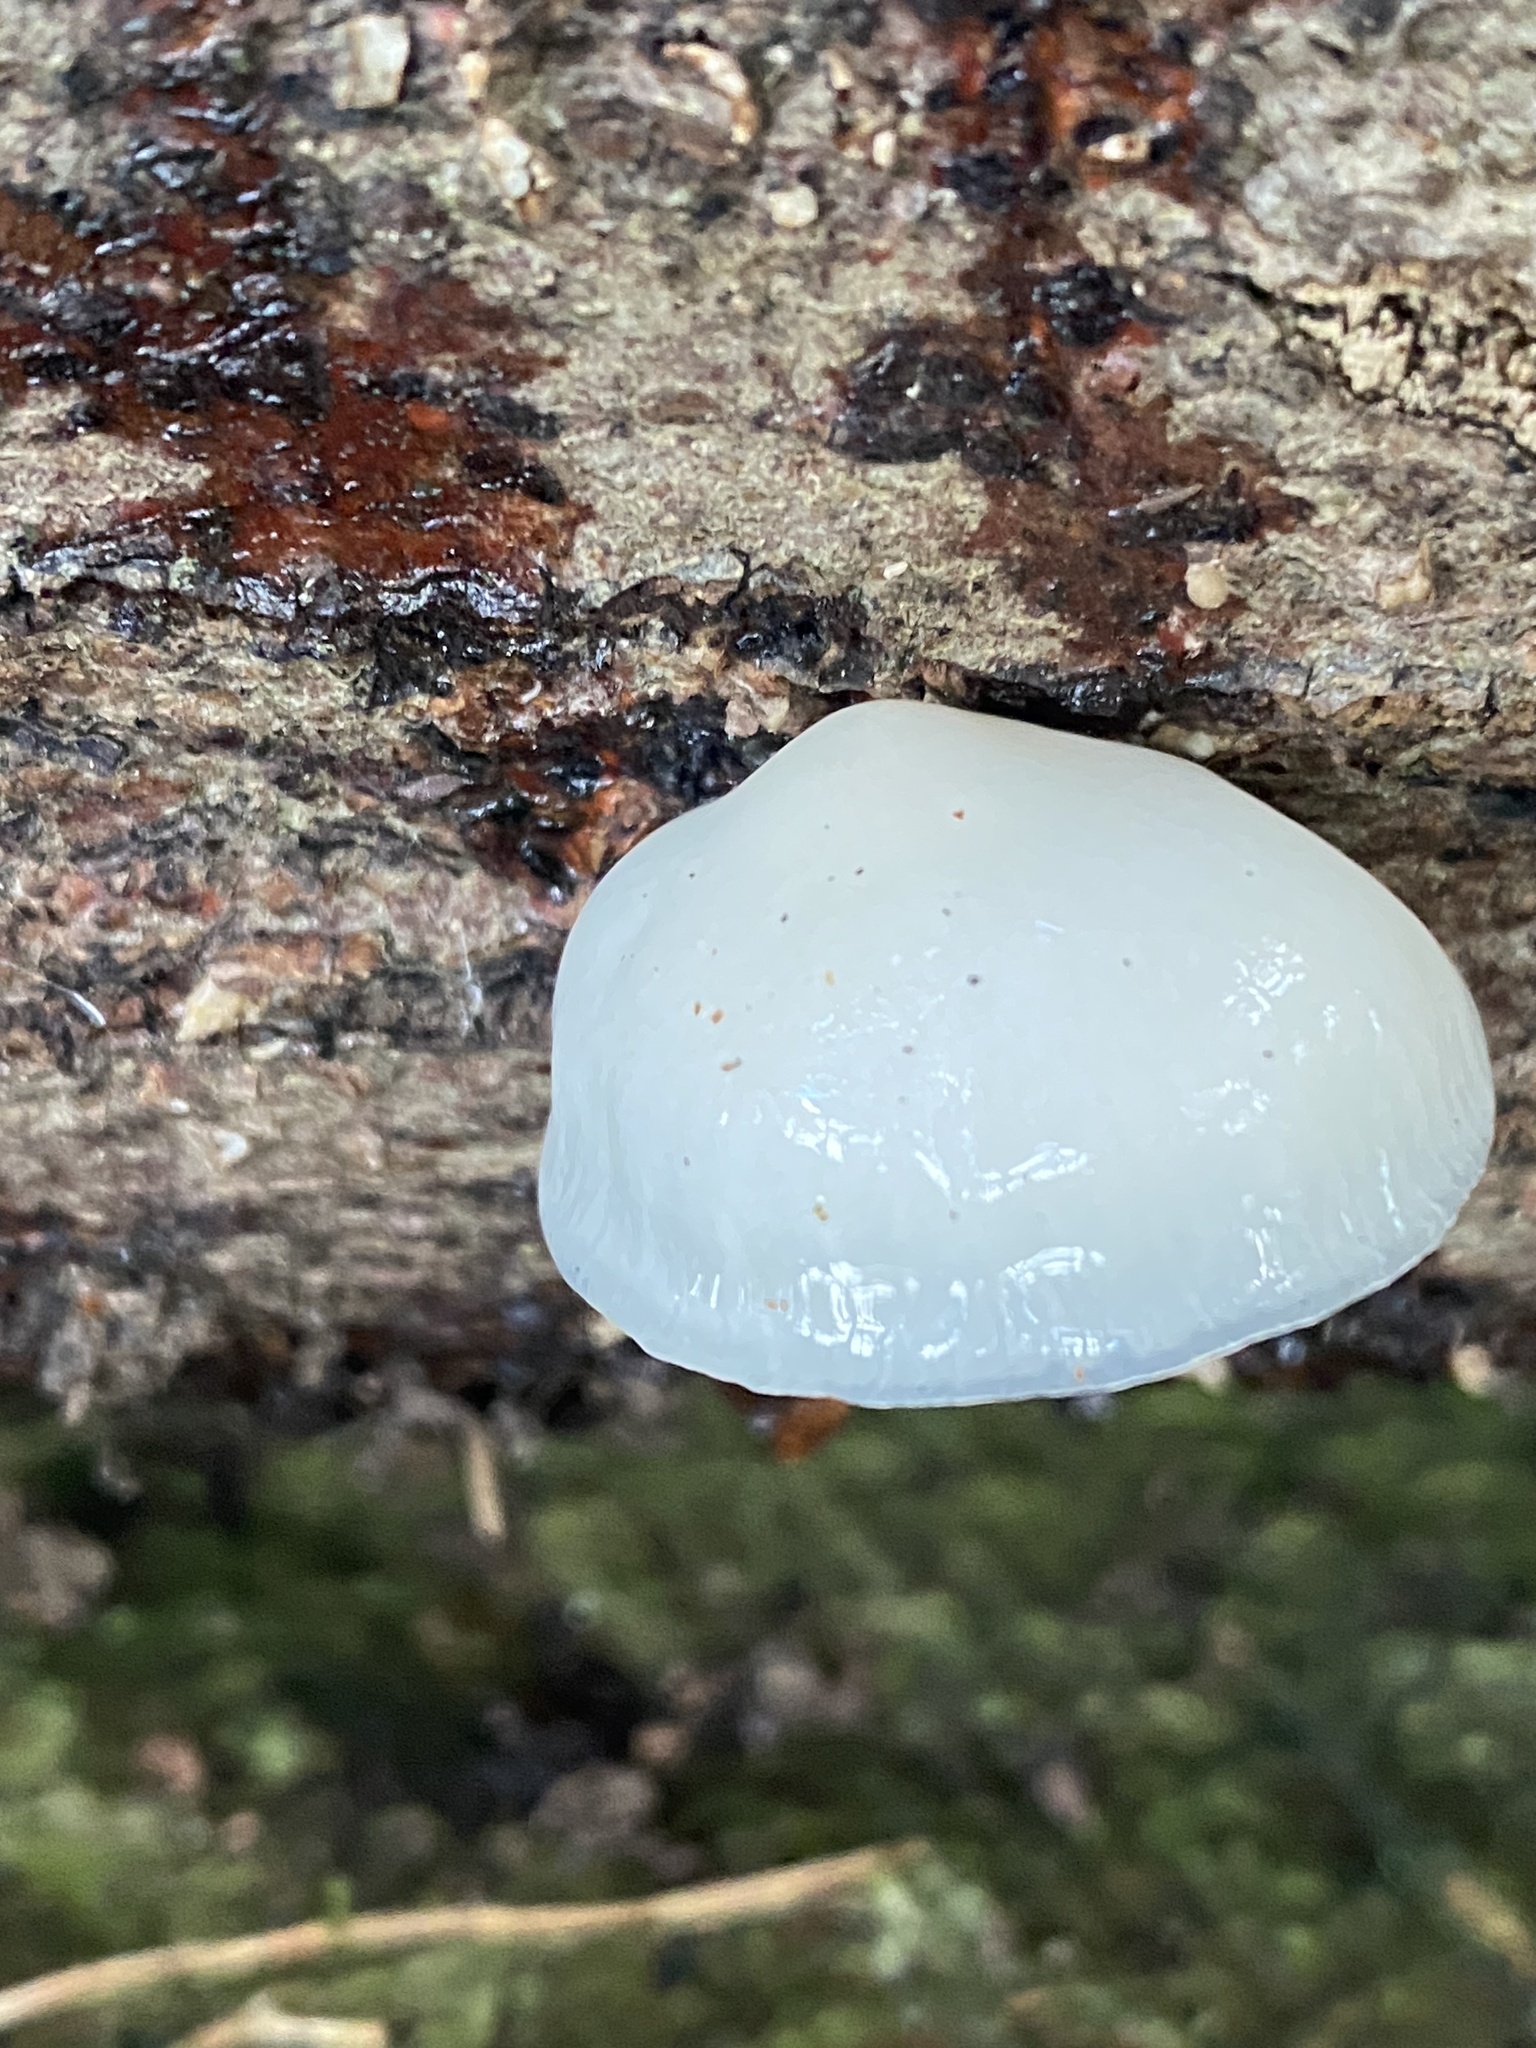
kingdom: Fungi
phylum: Basidiomycota
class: Agaricomycetes
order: Agaricales
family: Physalacriaceae
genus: Mucidula
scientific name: Mucidula mucida
